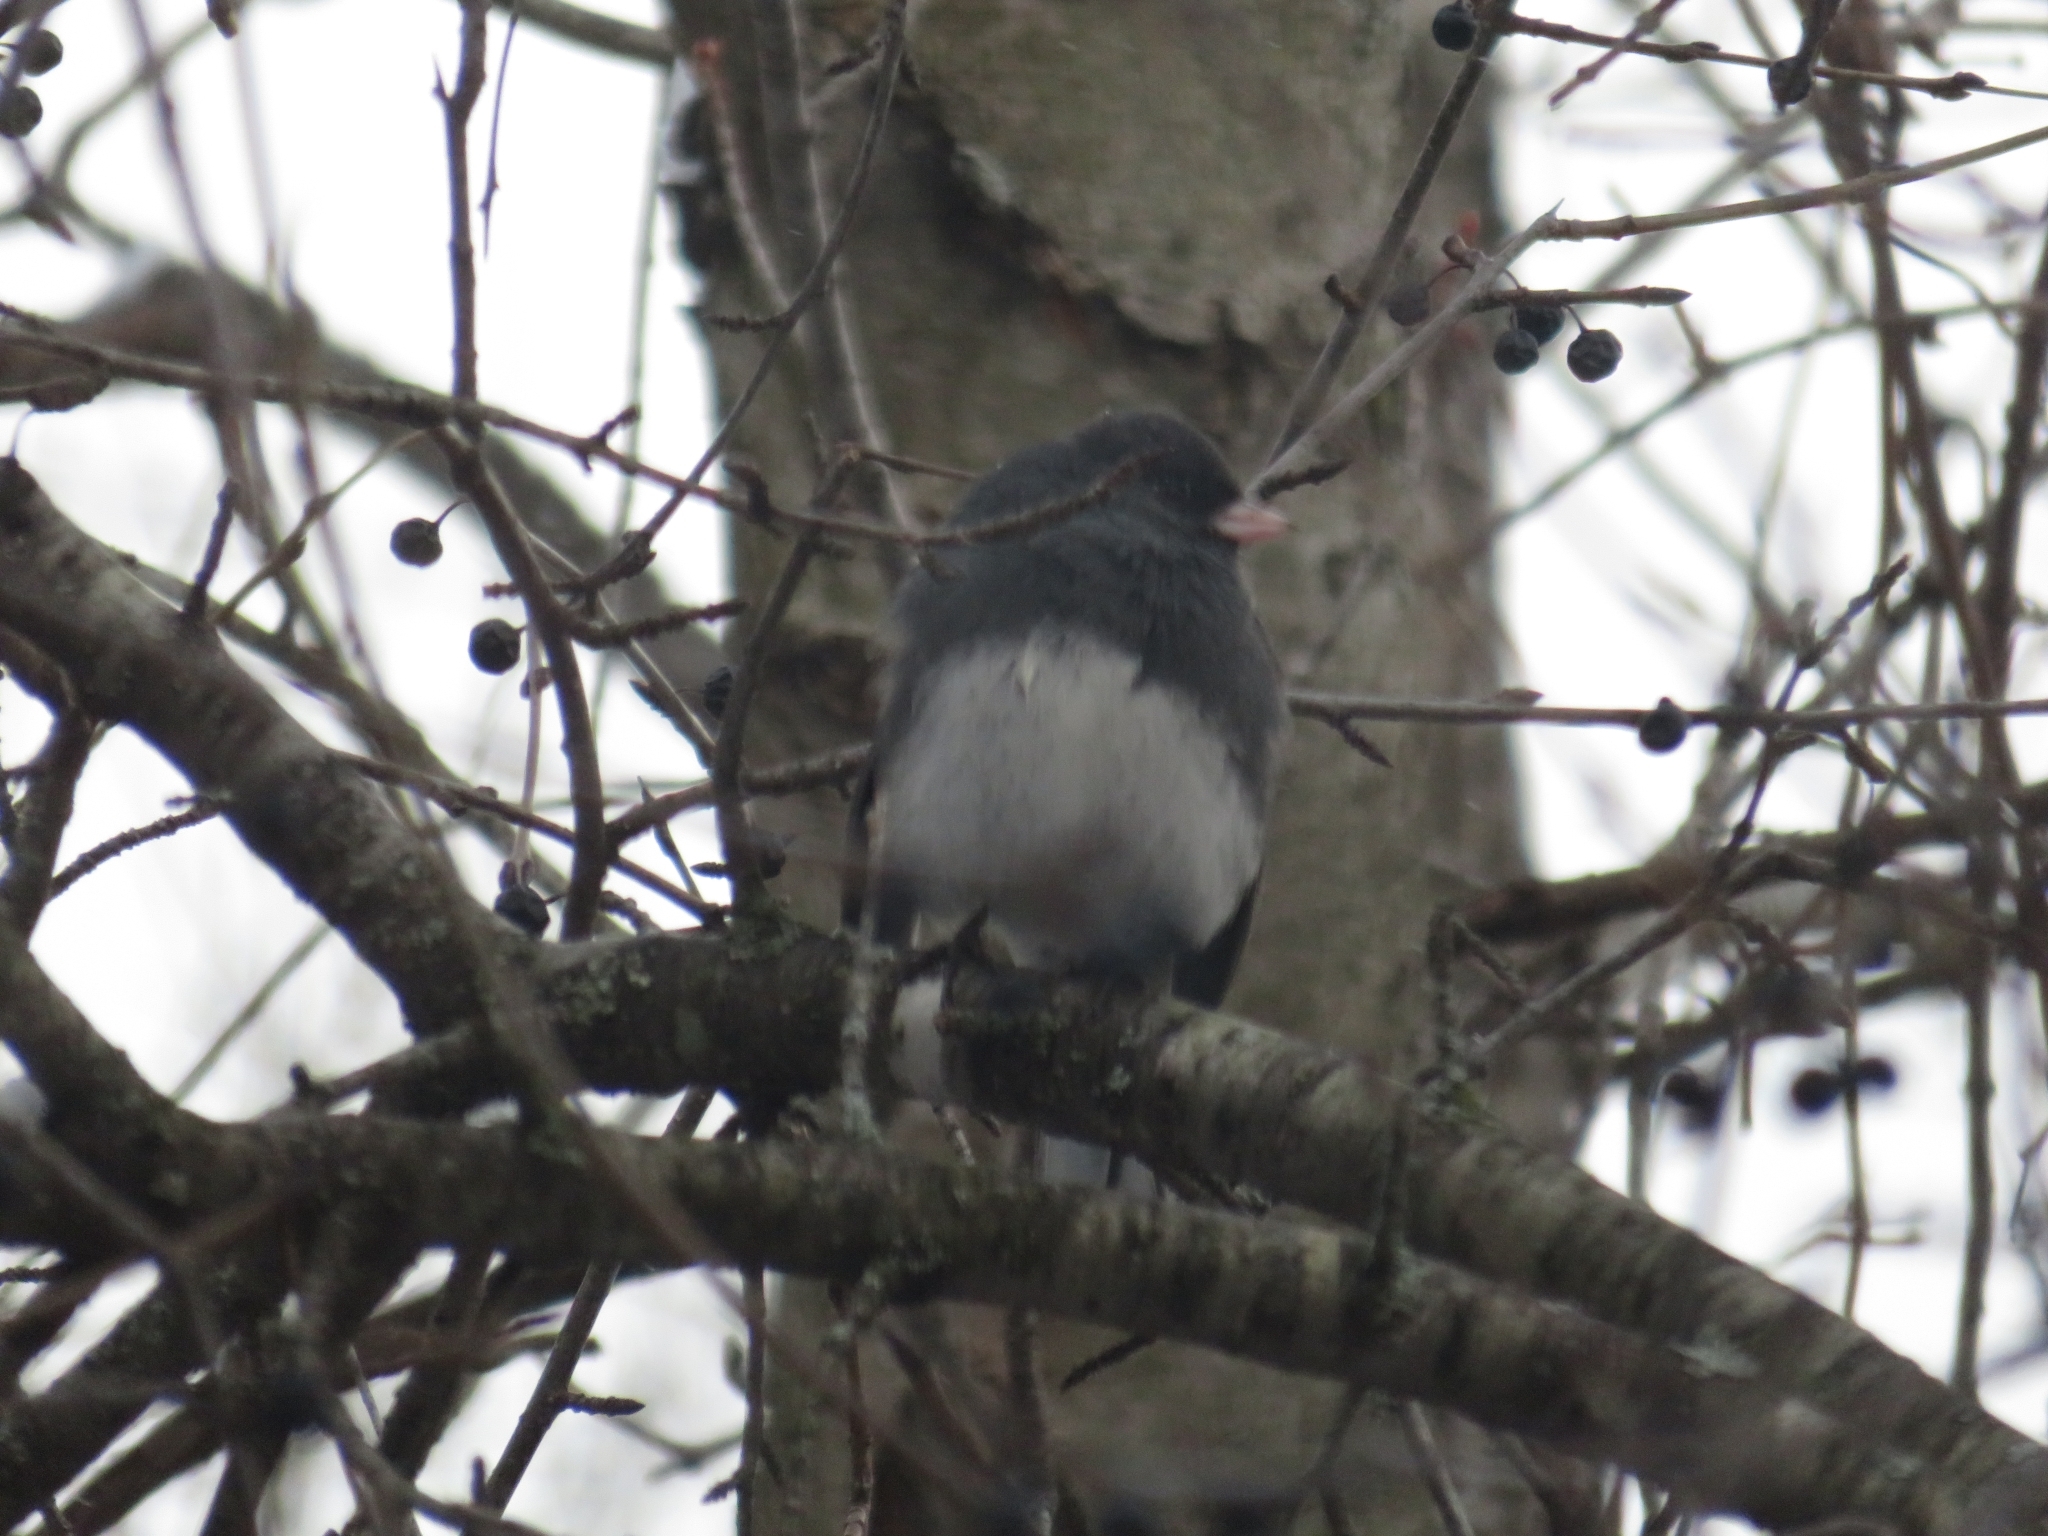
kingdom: Animalia
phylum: Chordata
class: Aves
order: Passeriformes
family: Passerellidae
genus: Junco
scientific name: Junco hyemalis
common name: Dark-eyed junco
